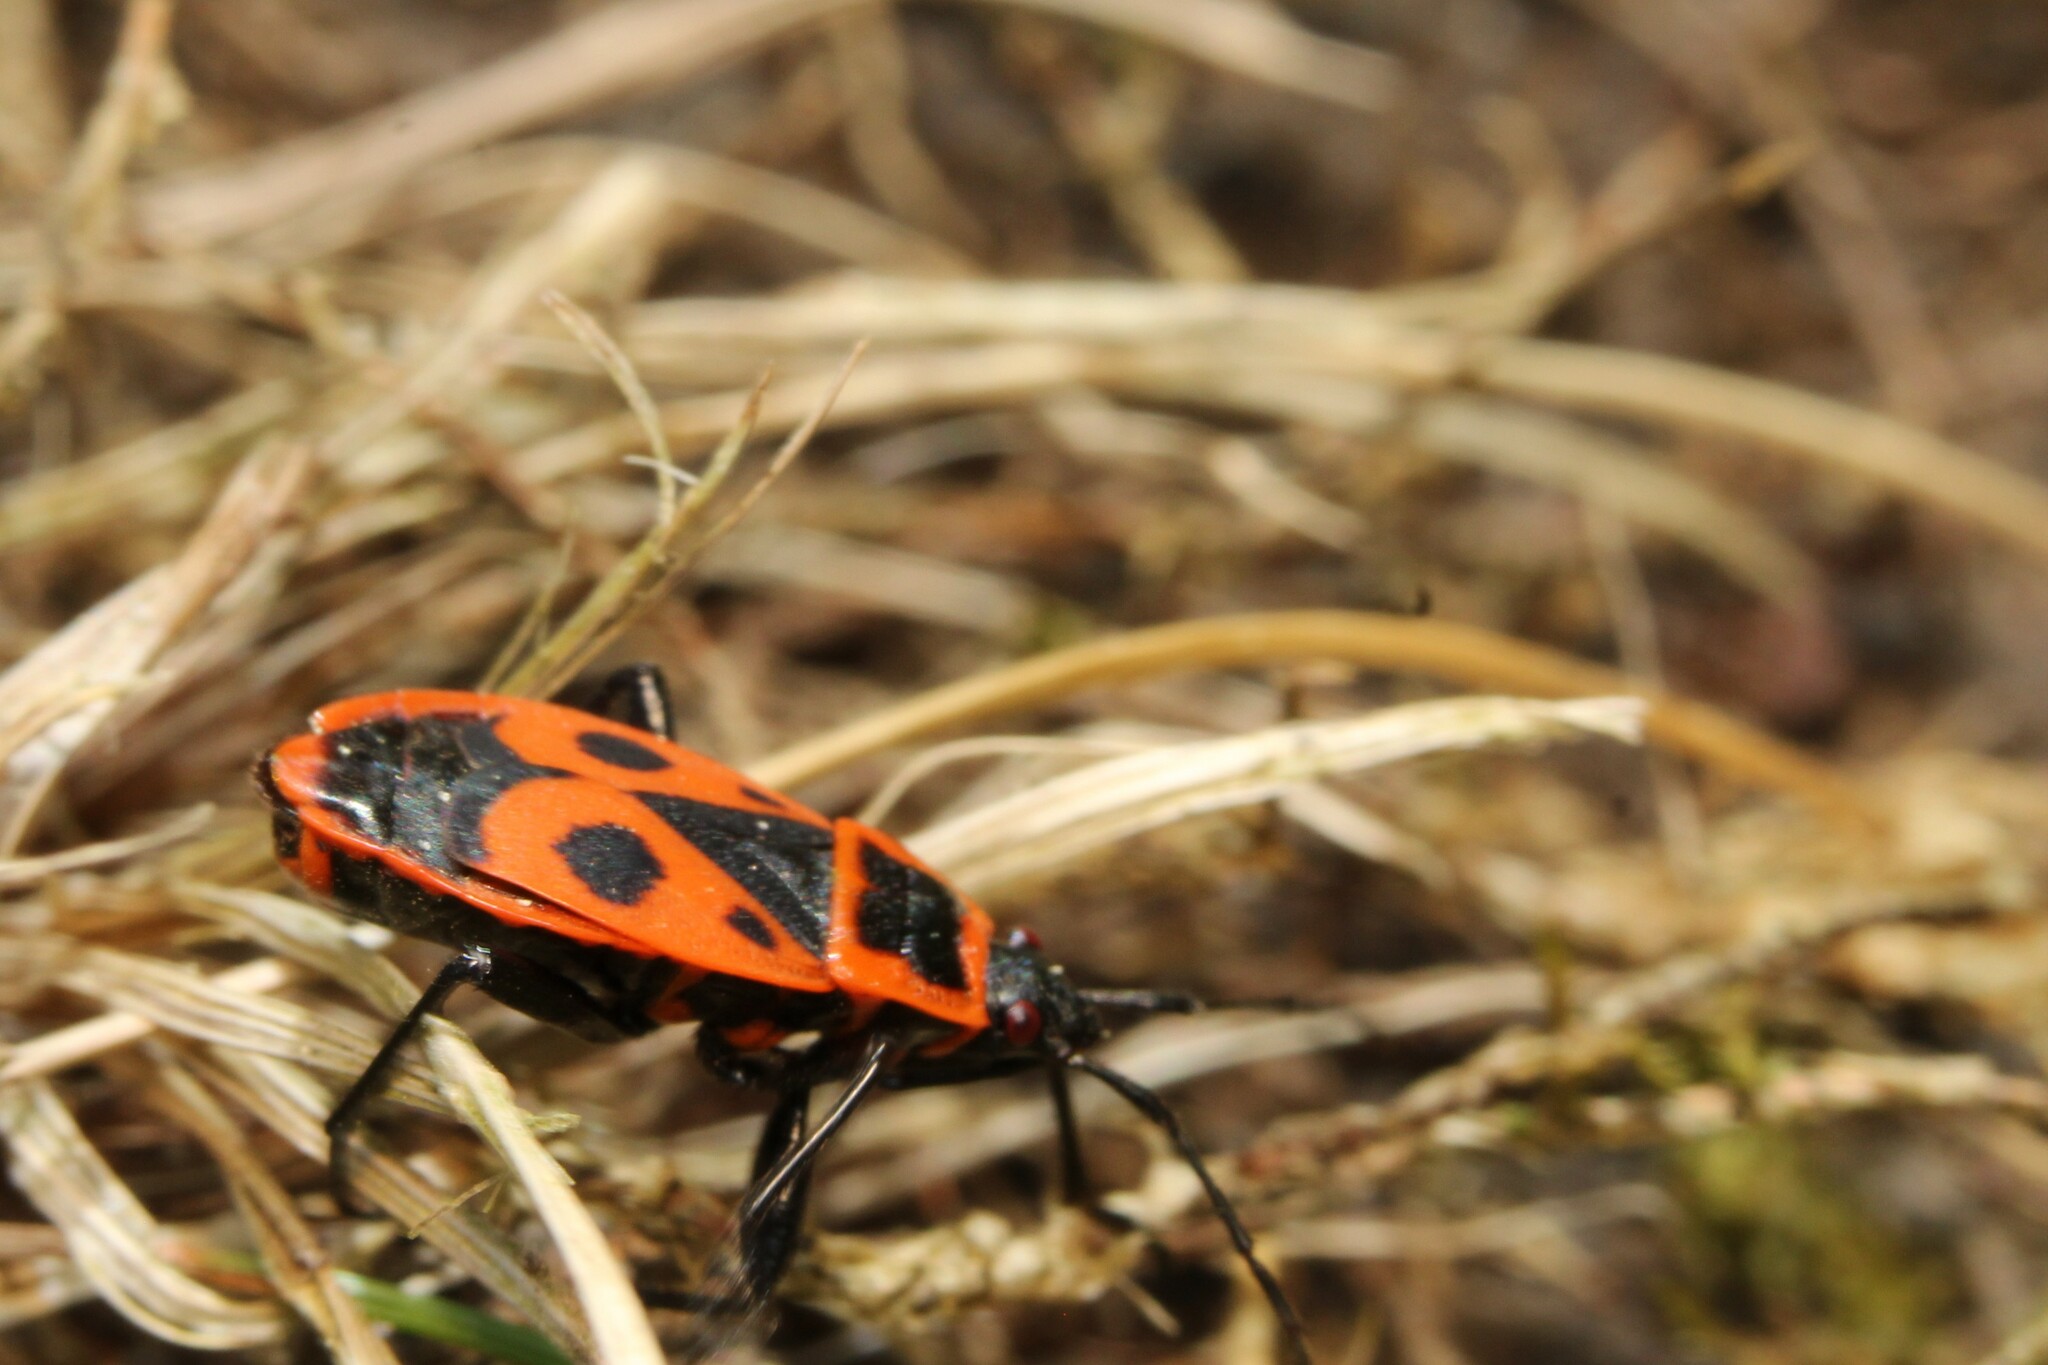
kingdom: Animalia
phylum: Arthropoda
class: Insecta
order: Hemiptera
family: Pyrrhocoridae
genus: Pyrrhocoris
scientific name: Pyrrhocoris apterus
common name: Firebug
